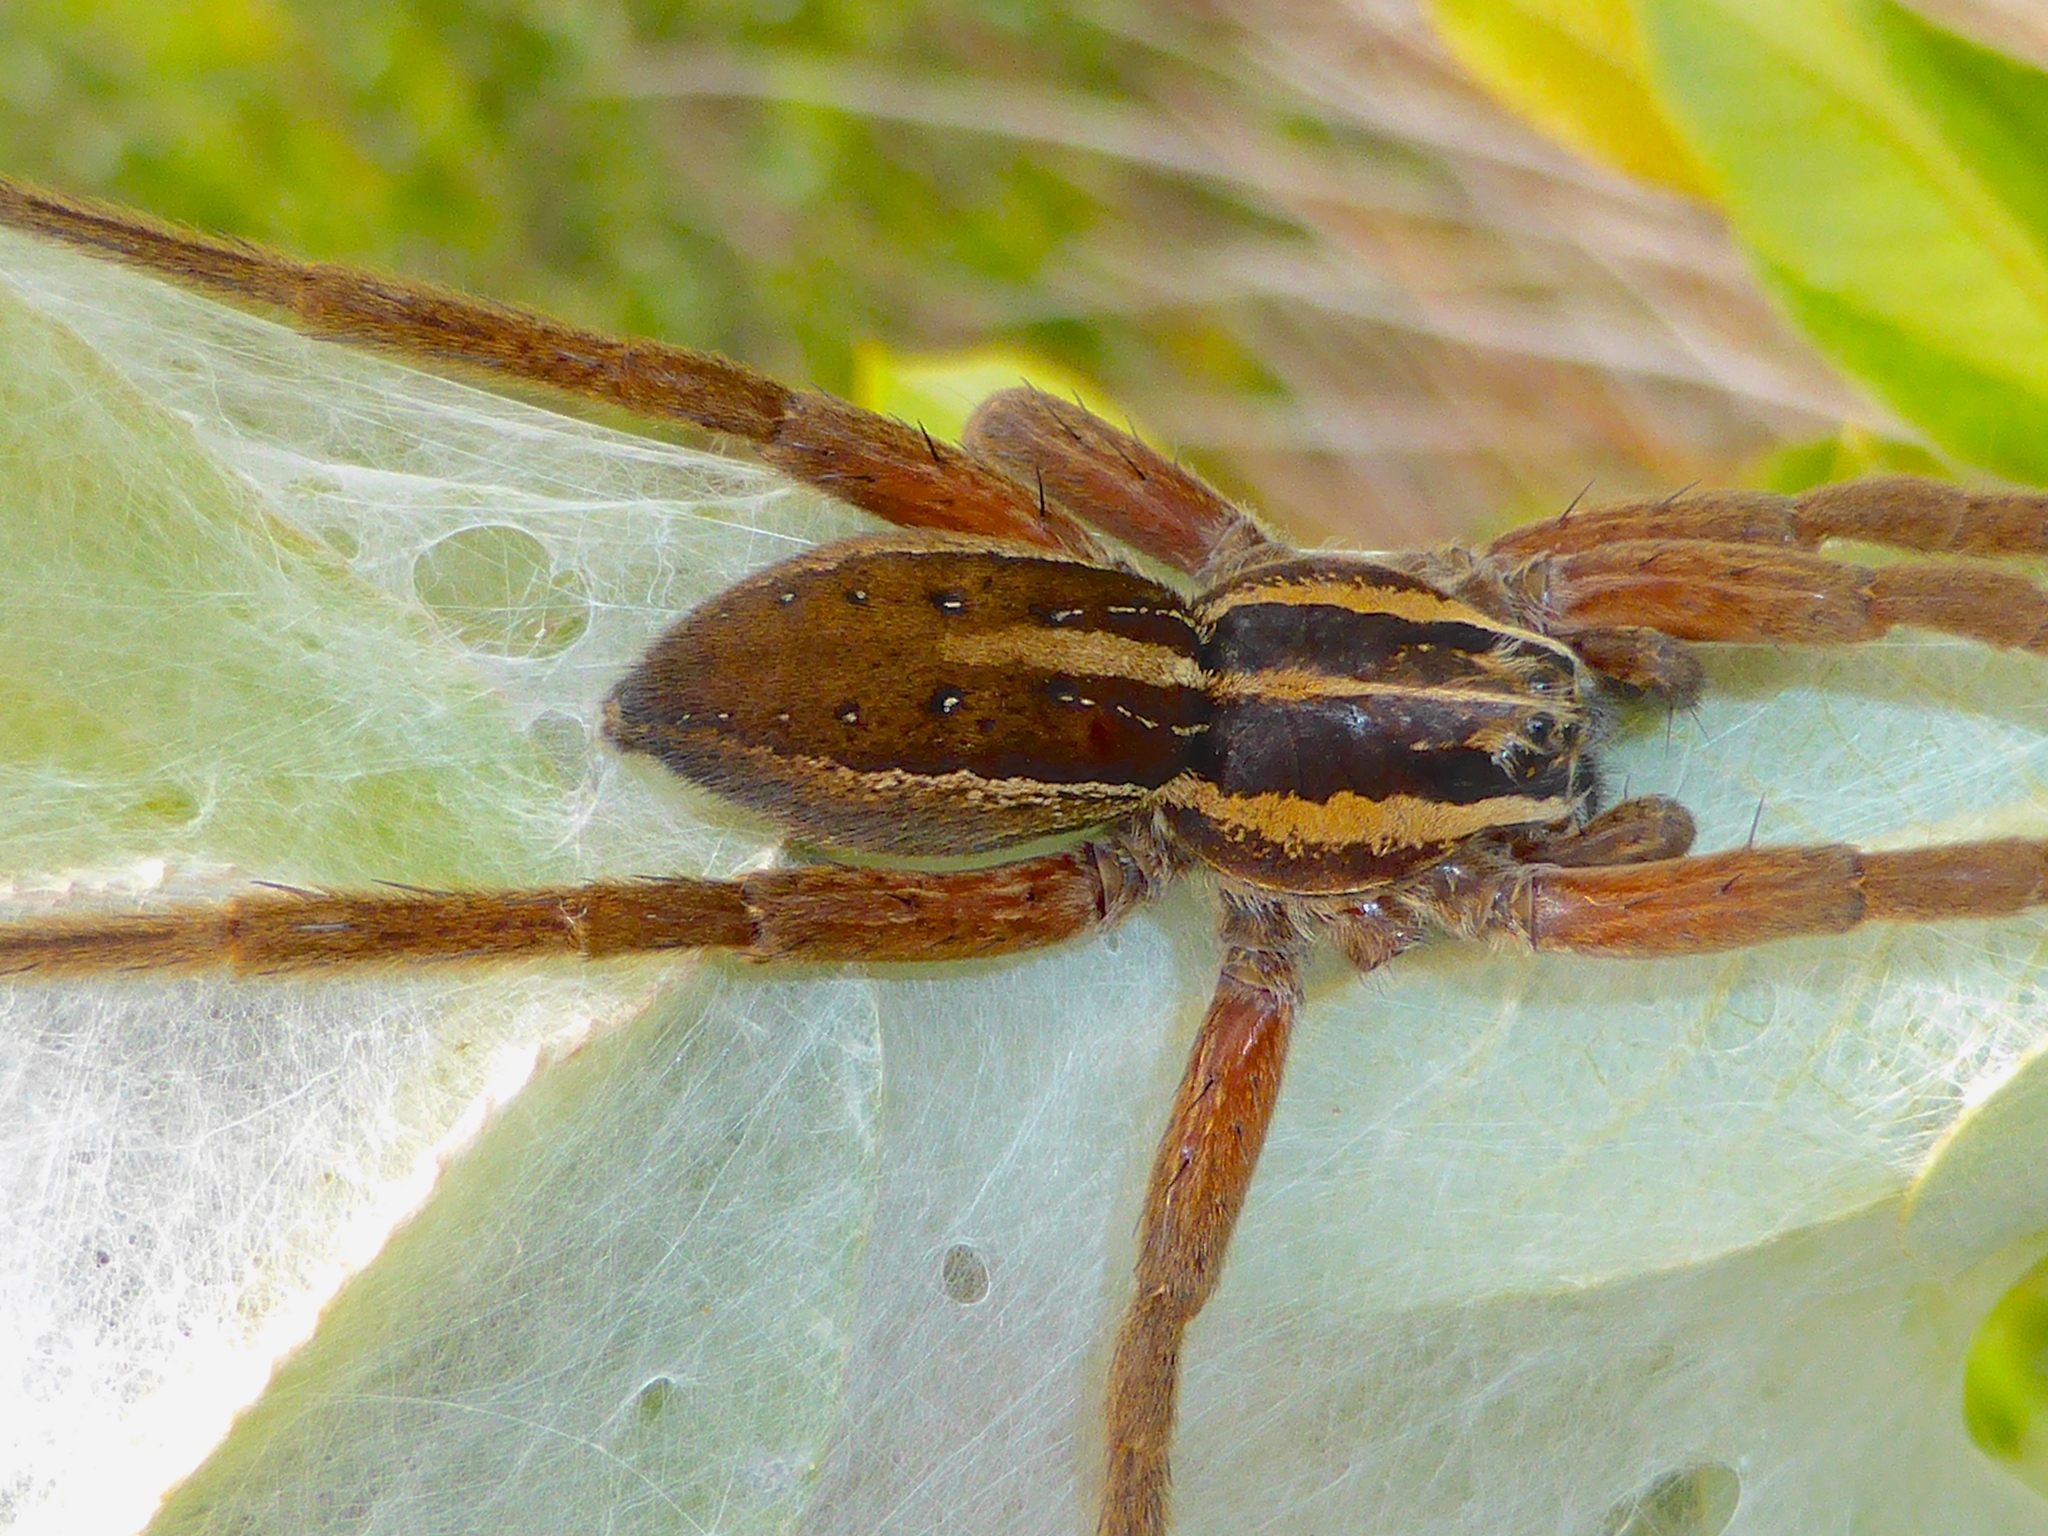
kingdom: Animalia
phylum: Arthropoda
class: Arachnida
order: Araneae
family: Pisauridae
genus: Dolomedes
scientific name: Dolomedes minor
